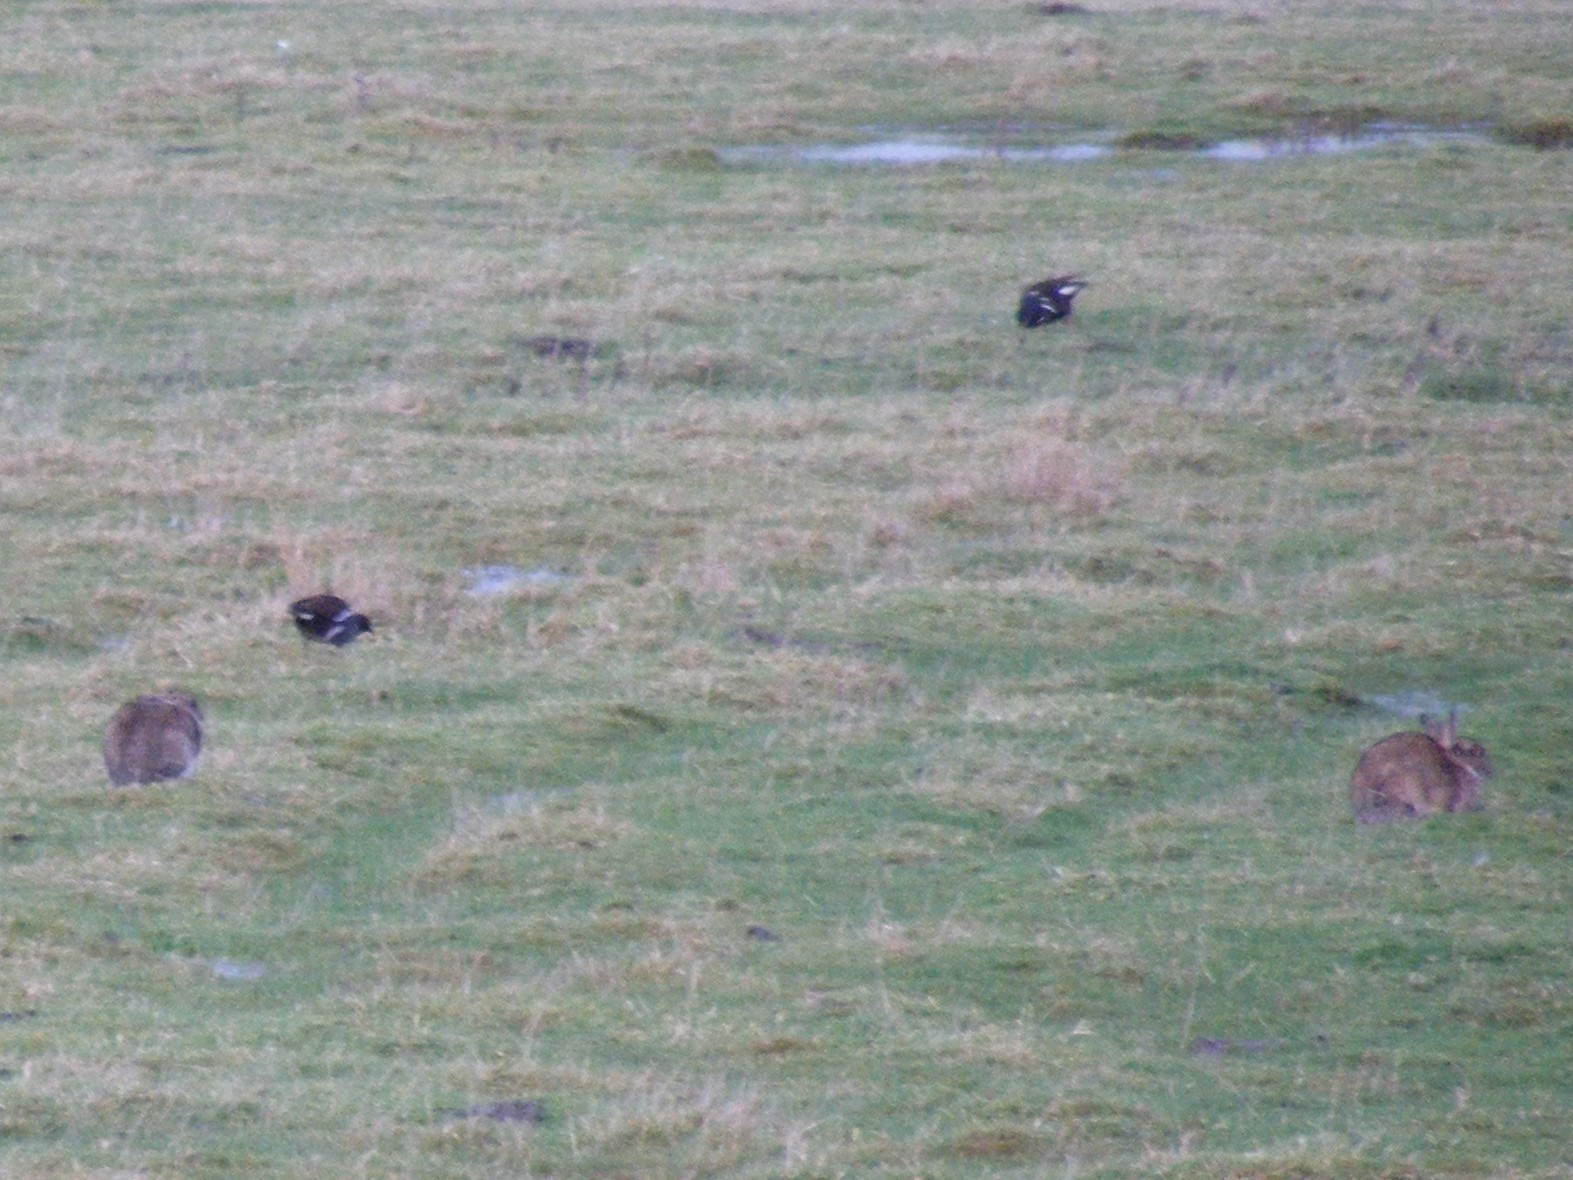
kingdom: Animalia
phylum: Chordata
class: Mammalia
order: Lagomorpha
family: Leporidae
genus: Oryctolagus
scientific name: Oryctolagus cuniculus
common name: European rabbit
